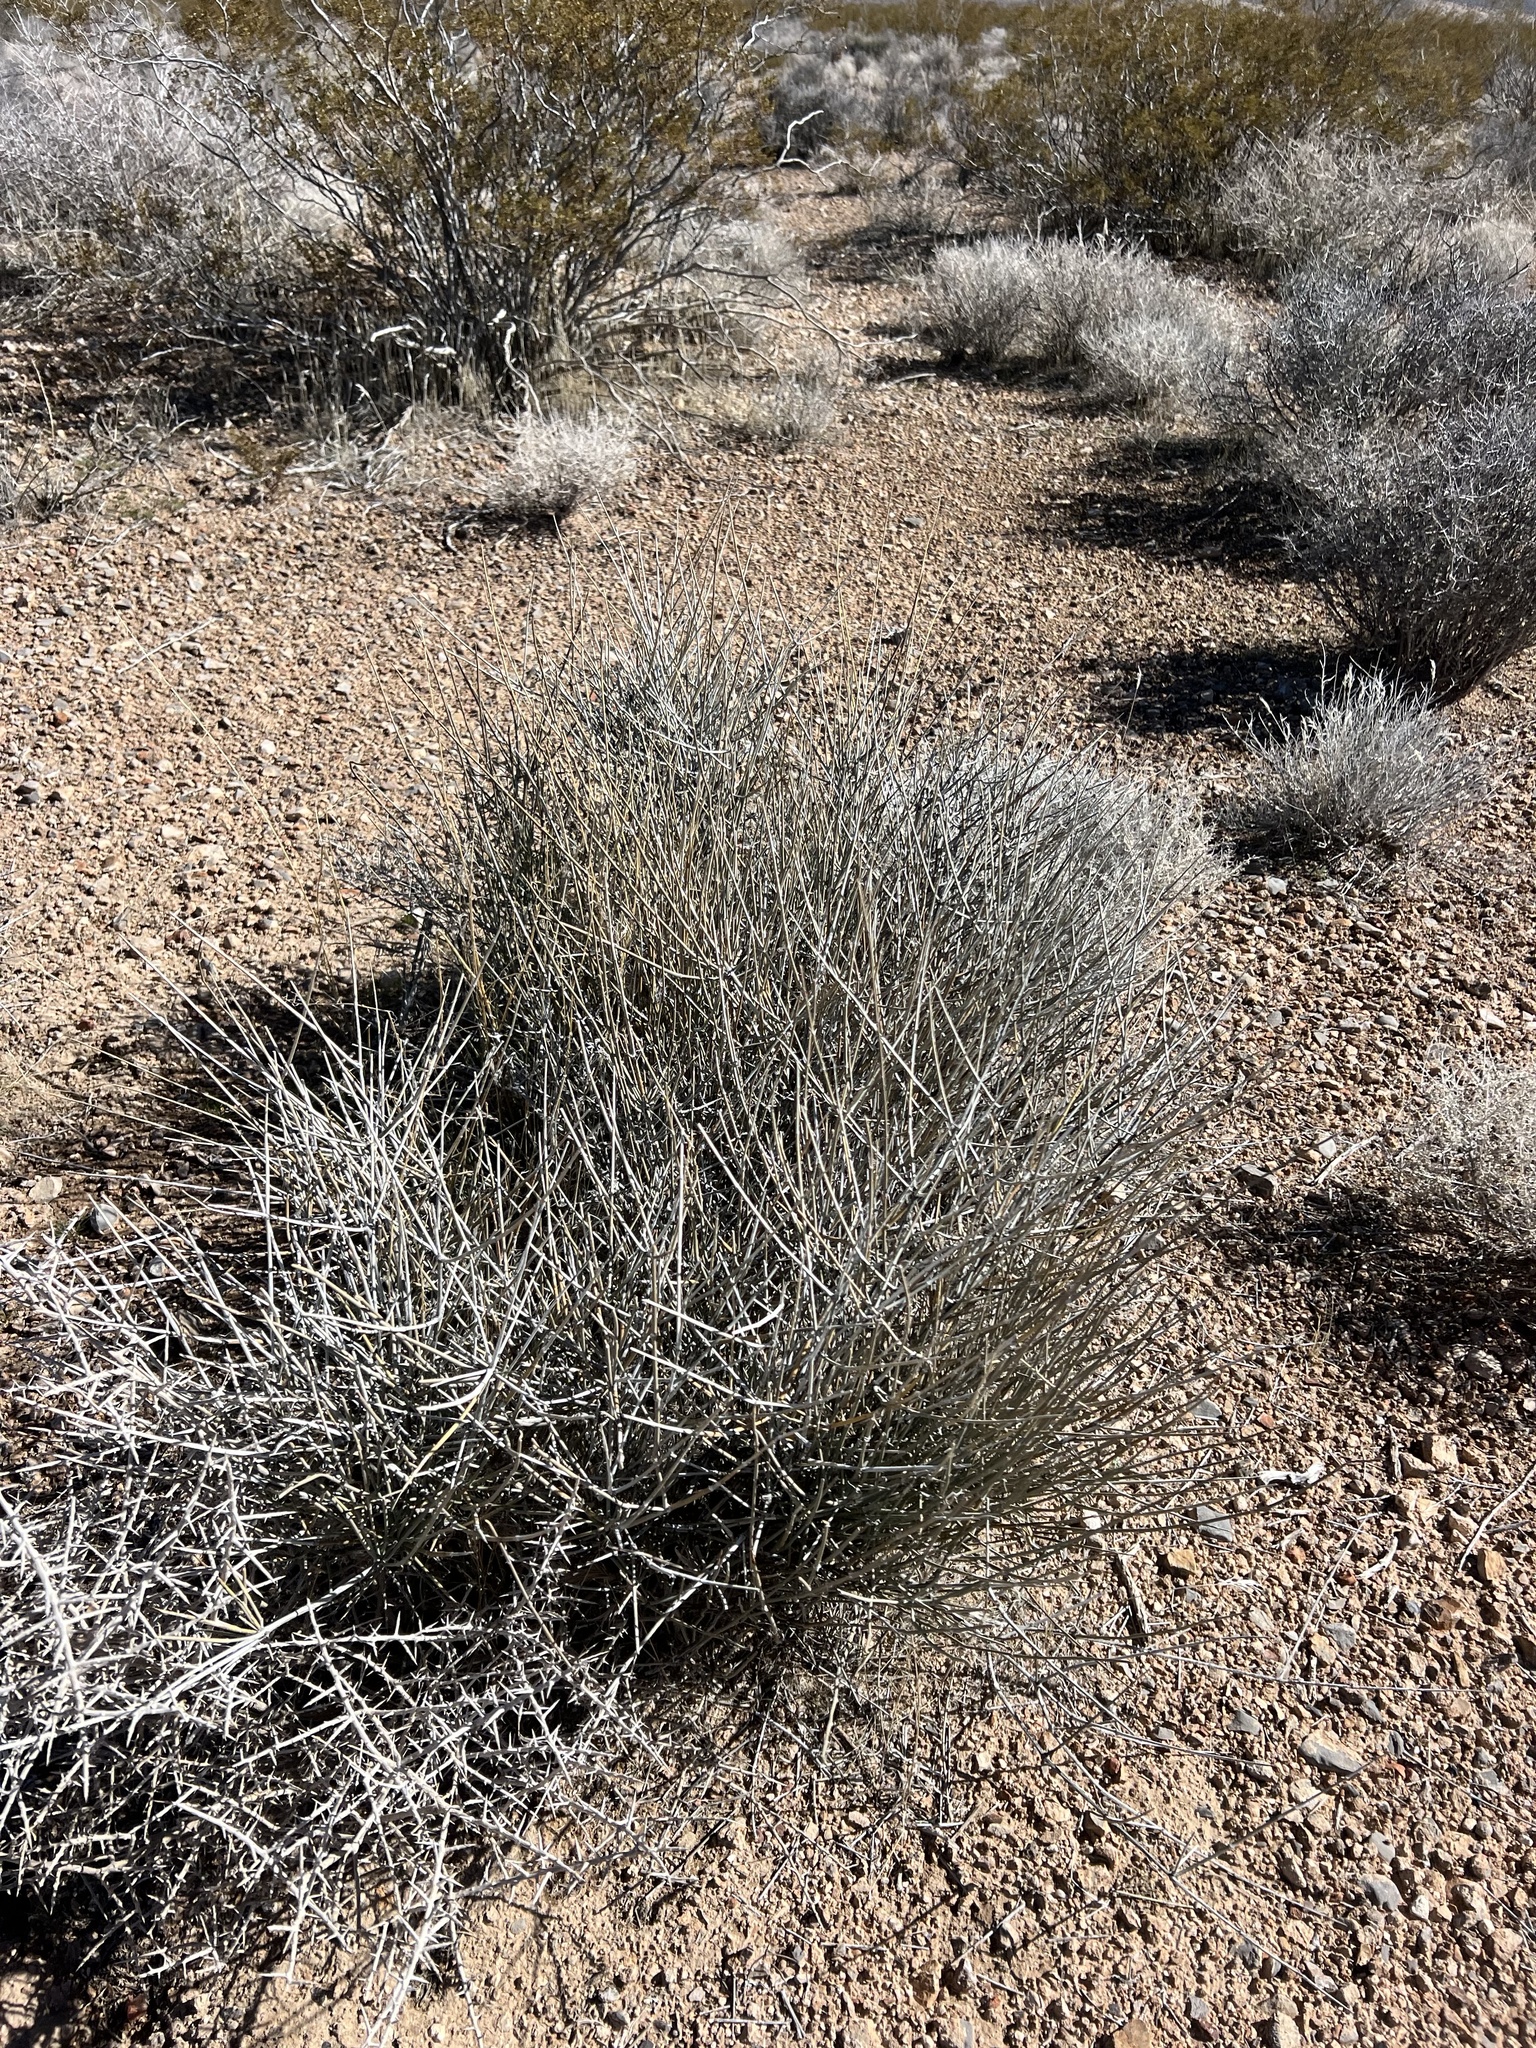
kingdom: Plantae
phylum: Tracheophyta
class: Gnetopsida
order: Ephedrales
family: Ephedraceae
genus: Ephedra
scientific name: Ephedra nevadensis
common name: Gray ephedra
